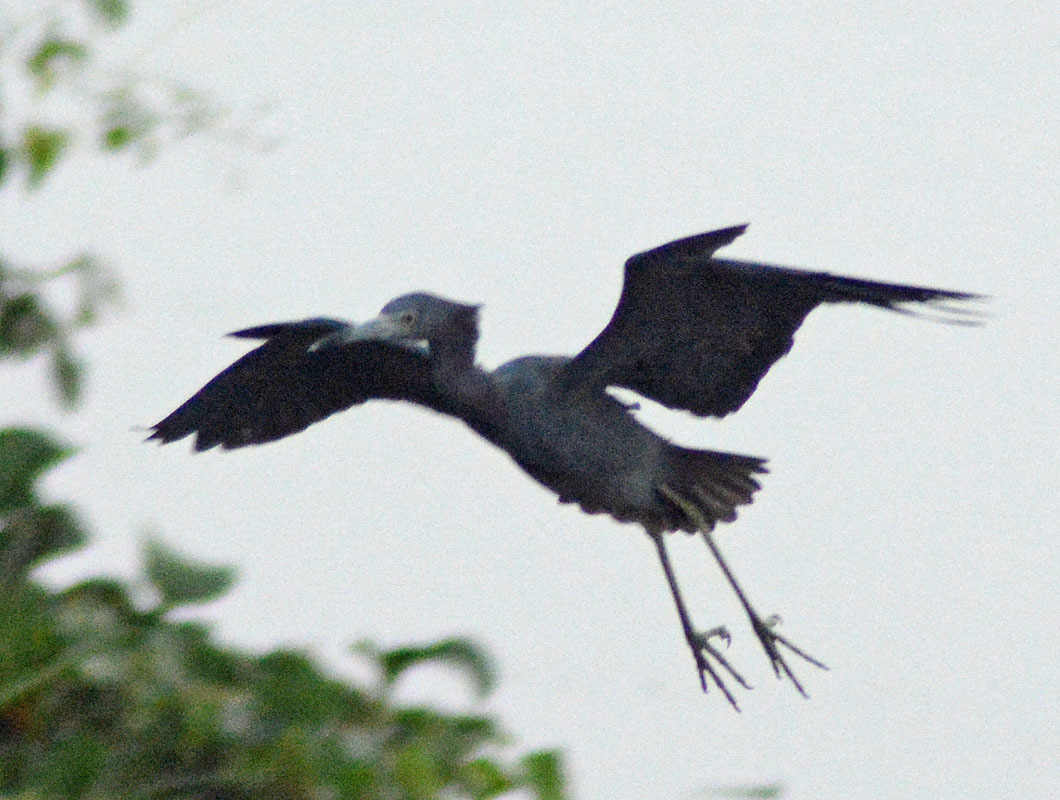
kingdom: Animalia
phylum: Chordata
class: Aves
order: Pelecaniformes
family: Ardeidae
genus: Egretta
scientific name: Egretta caerulea
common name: Little blue heron
